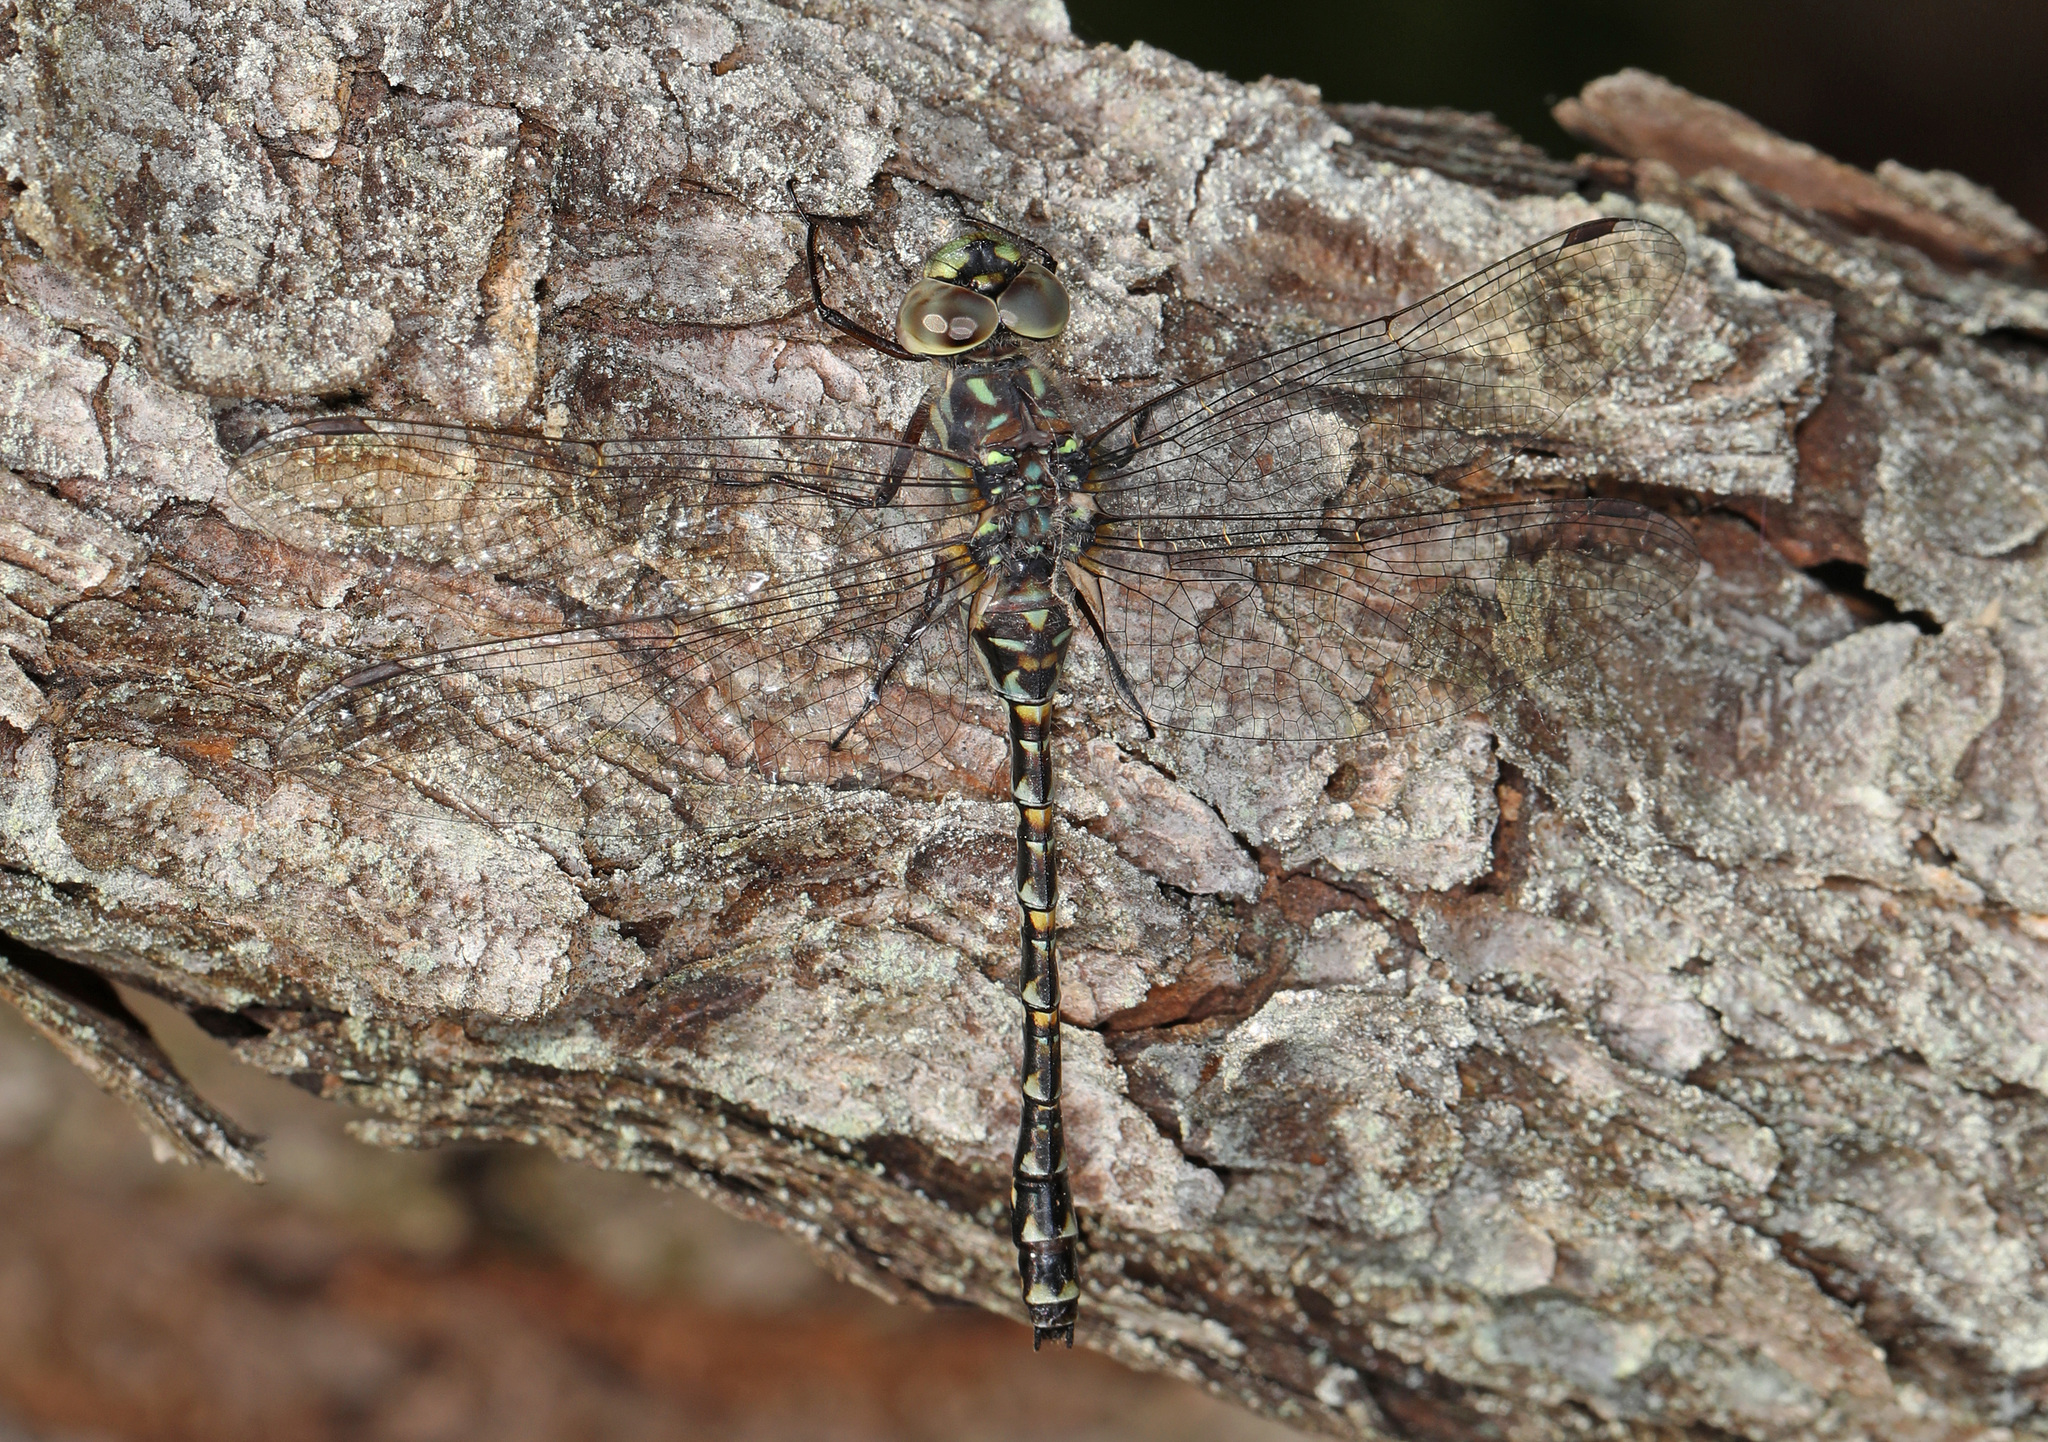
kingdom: Animalia
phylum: Arthropoda
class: Insecta
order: Odonata
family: Aeshnidae
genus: Gomphaeschna
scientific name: Gomphaeschna furcillata
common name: Harlequin darner
